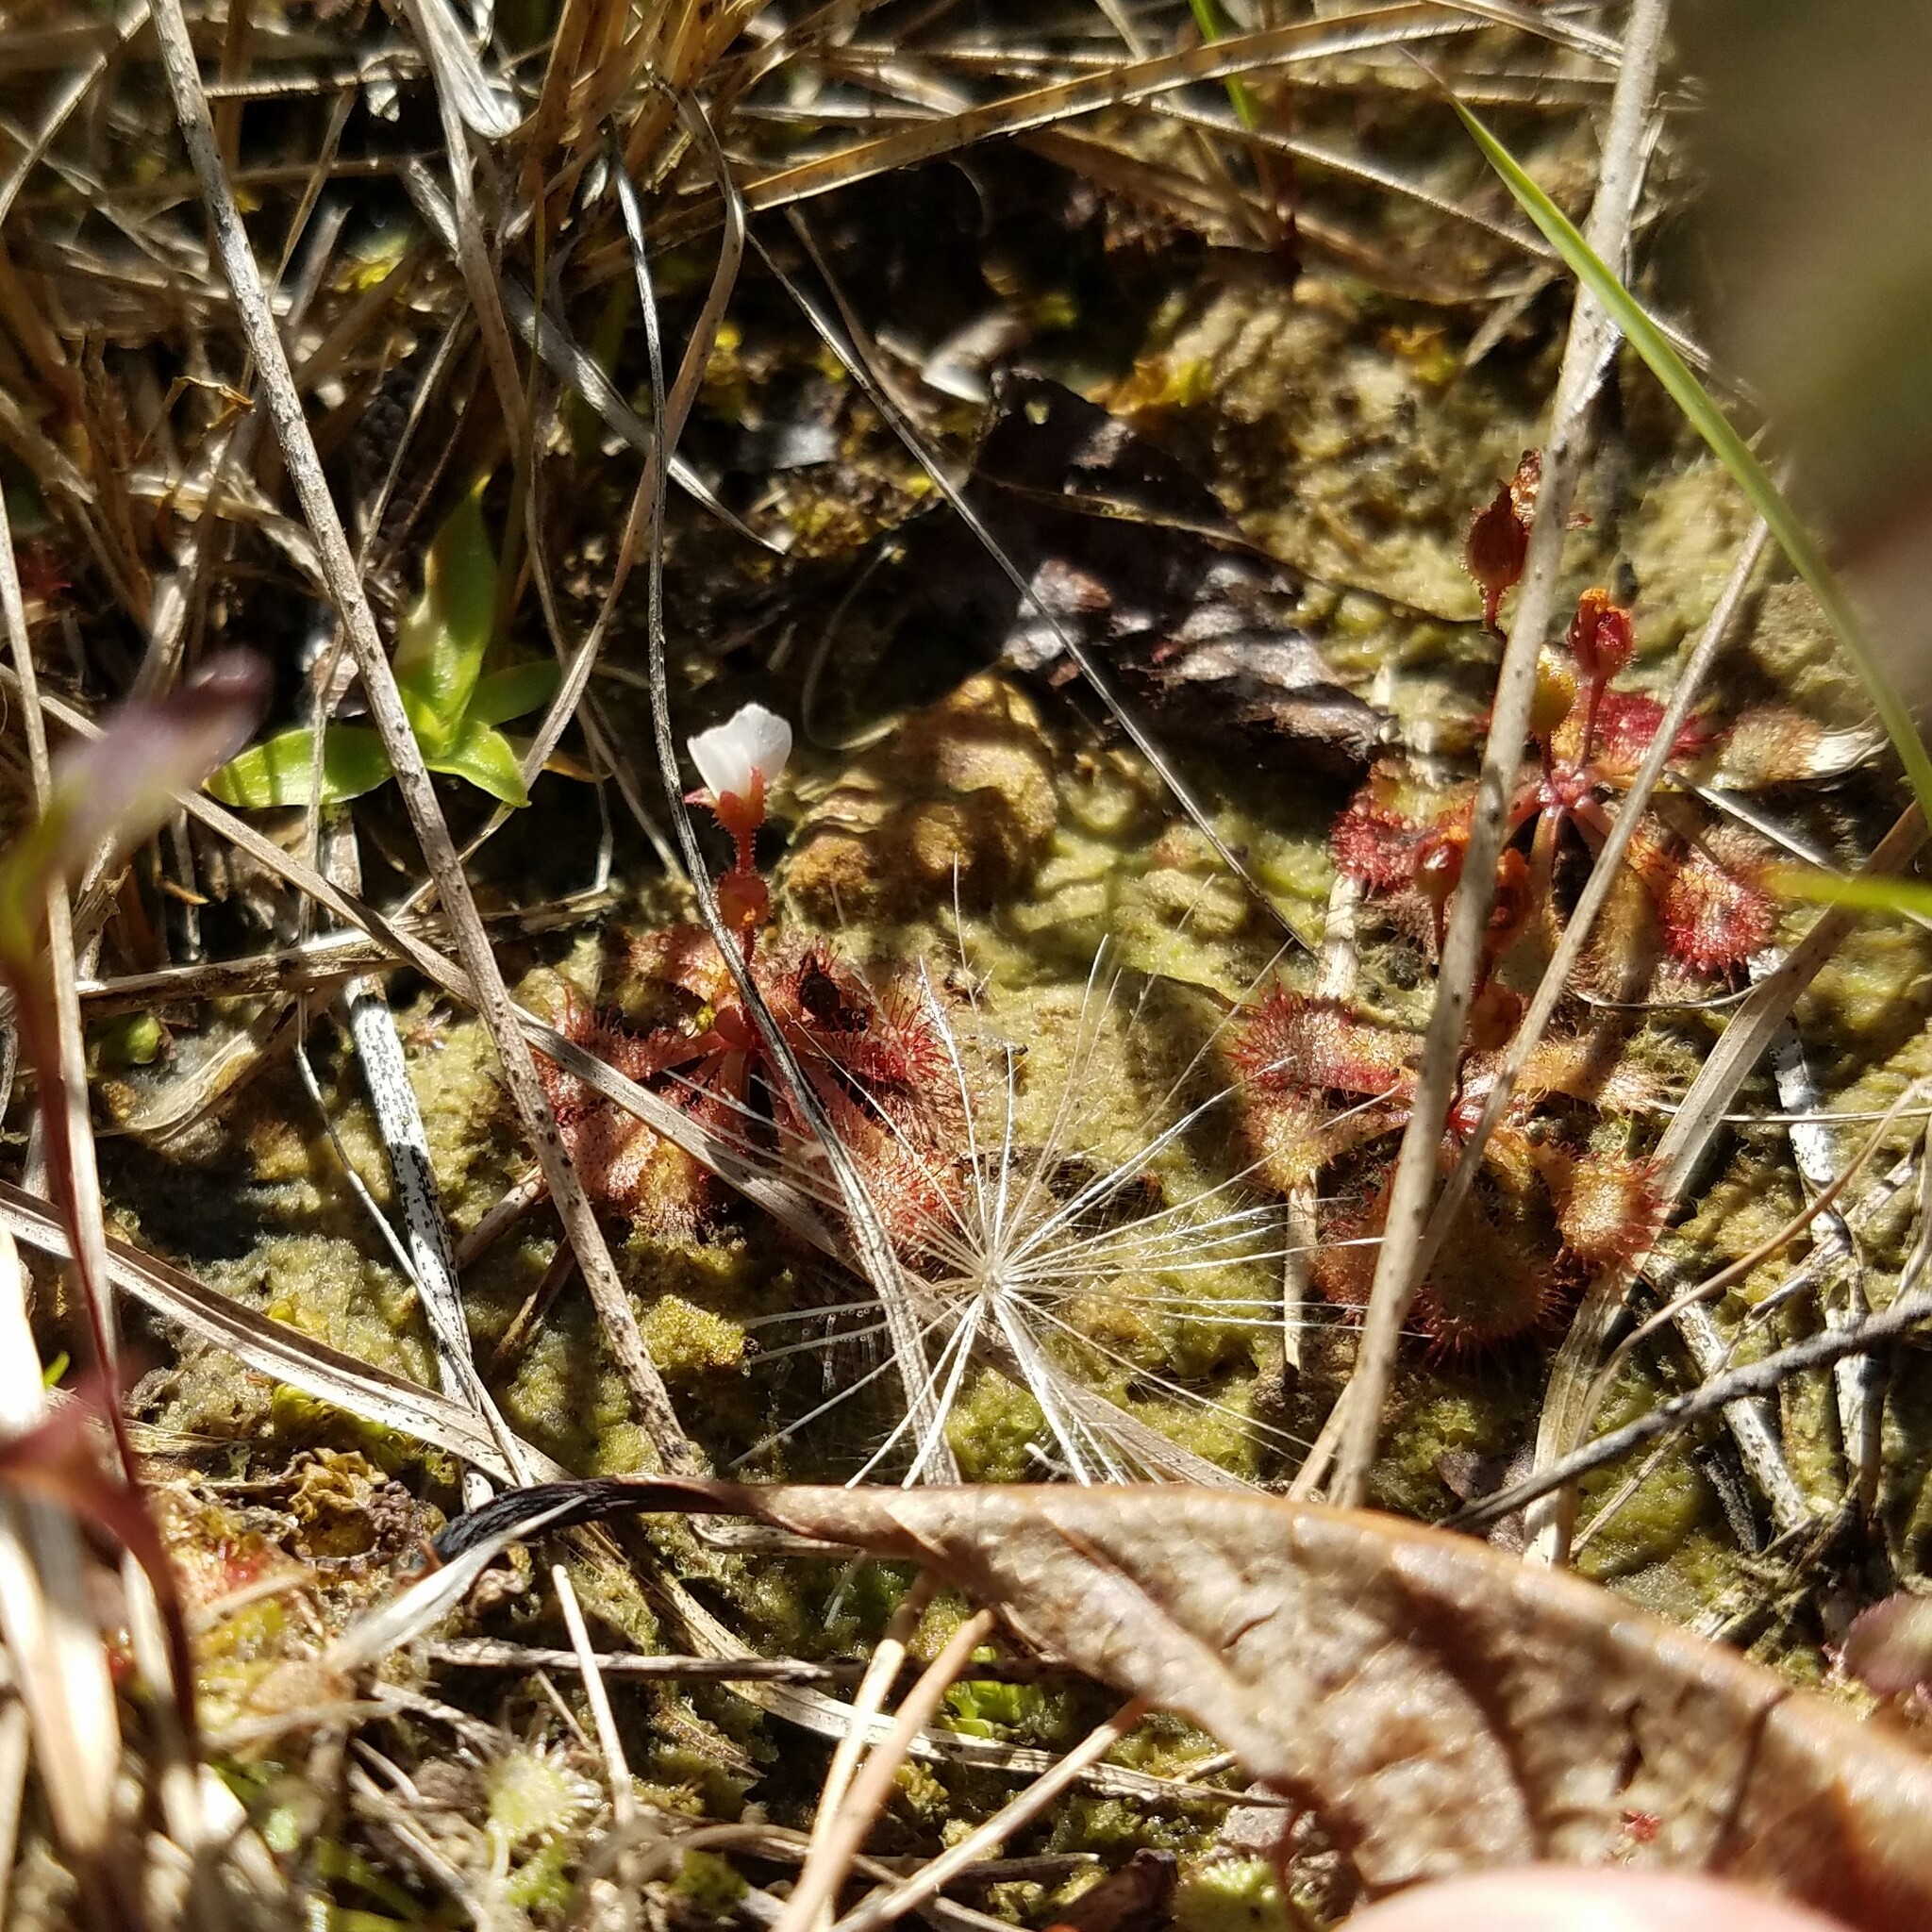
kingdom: Plantae
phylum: Tracheophyta
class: Magnoliopsida
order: Caryophyllales
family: Droseraceae
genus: Drosera
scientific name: Drosera brevifolia
